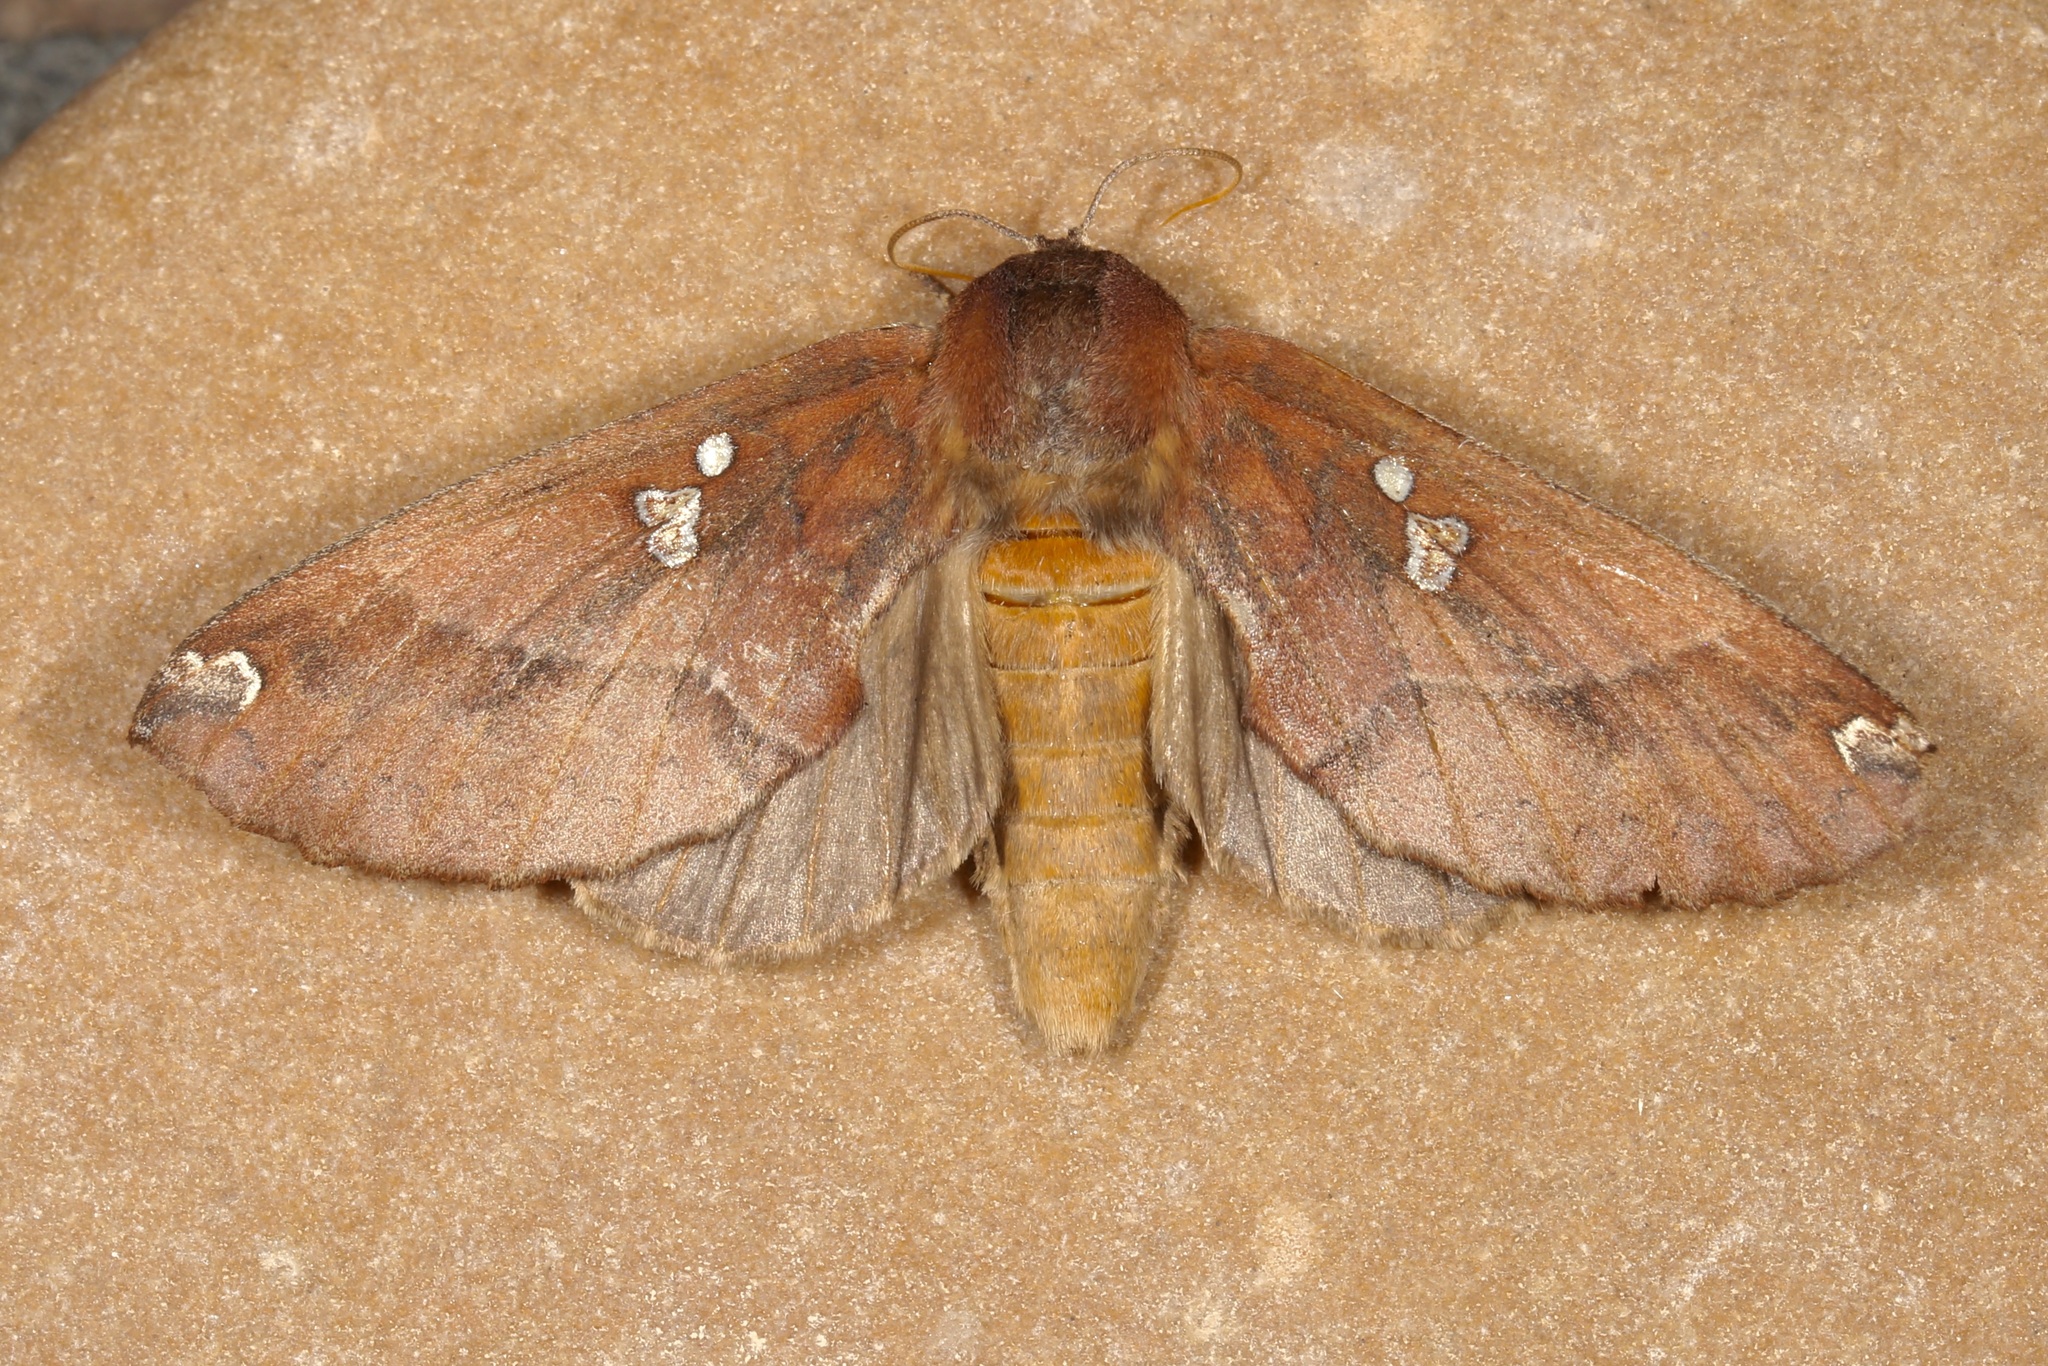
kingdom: Animalia
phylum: Arthropoda
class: Insecta
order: Lepidoptera
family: Notodontidae
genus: Pseudhapigia
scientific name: Pseudhapigia brunnea
